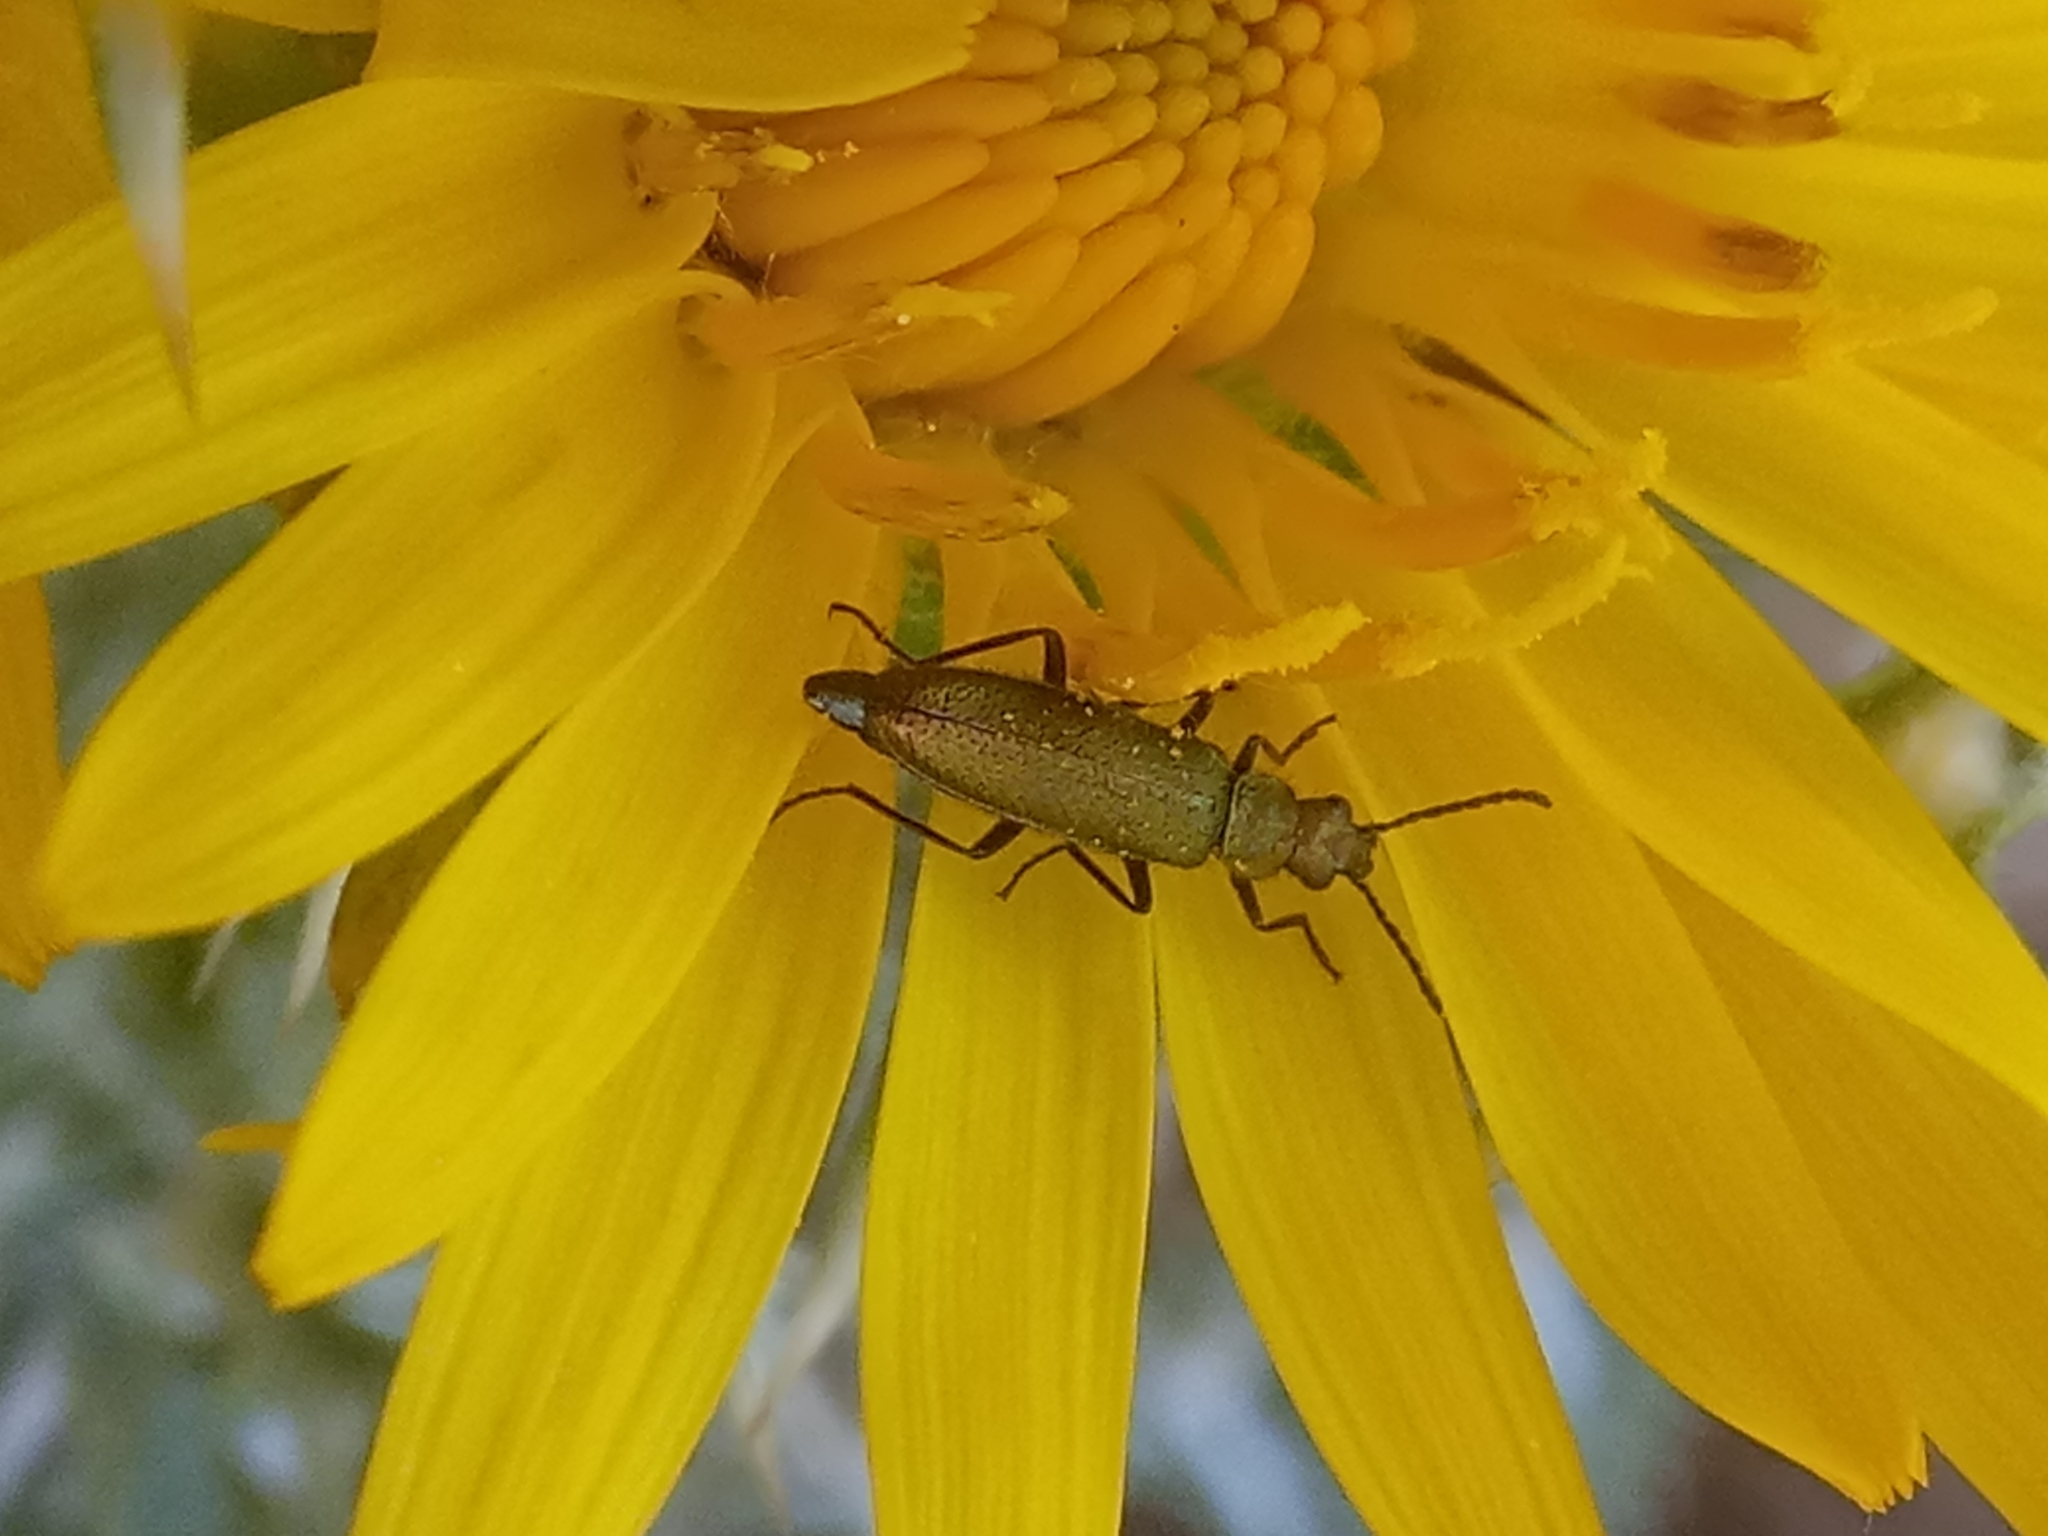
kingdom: Animalia
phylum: Arthropoda
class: Insecta
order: Coleoptera
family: Stenotrachelidae
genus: Stenotrachelus
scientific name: Stenotrachelus aeneus
